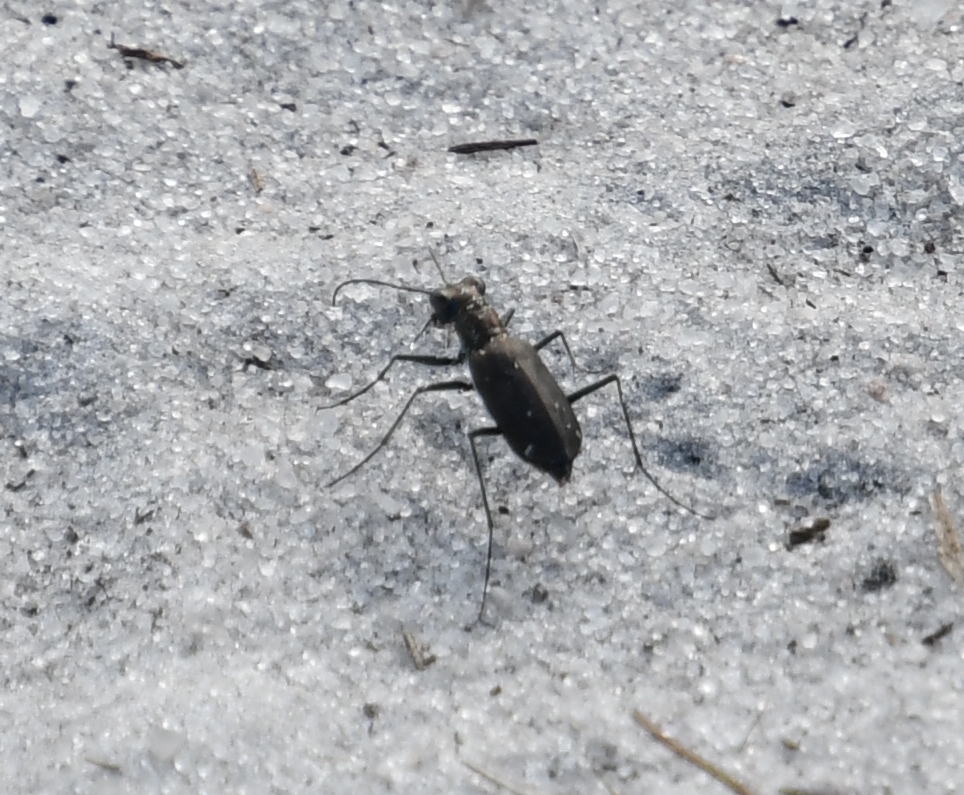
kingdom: Animalia
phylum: Arthropoda
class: Insecta
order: Coleoptera
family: Carabidae
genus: Cicindela
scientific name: Cicindela punctulata
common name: Punctured tiger beetle
